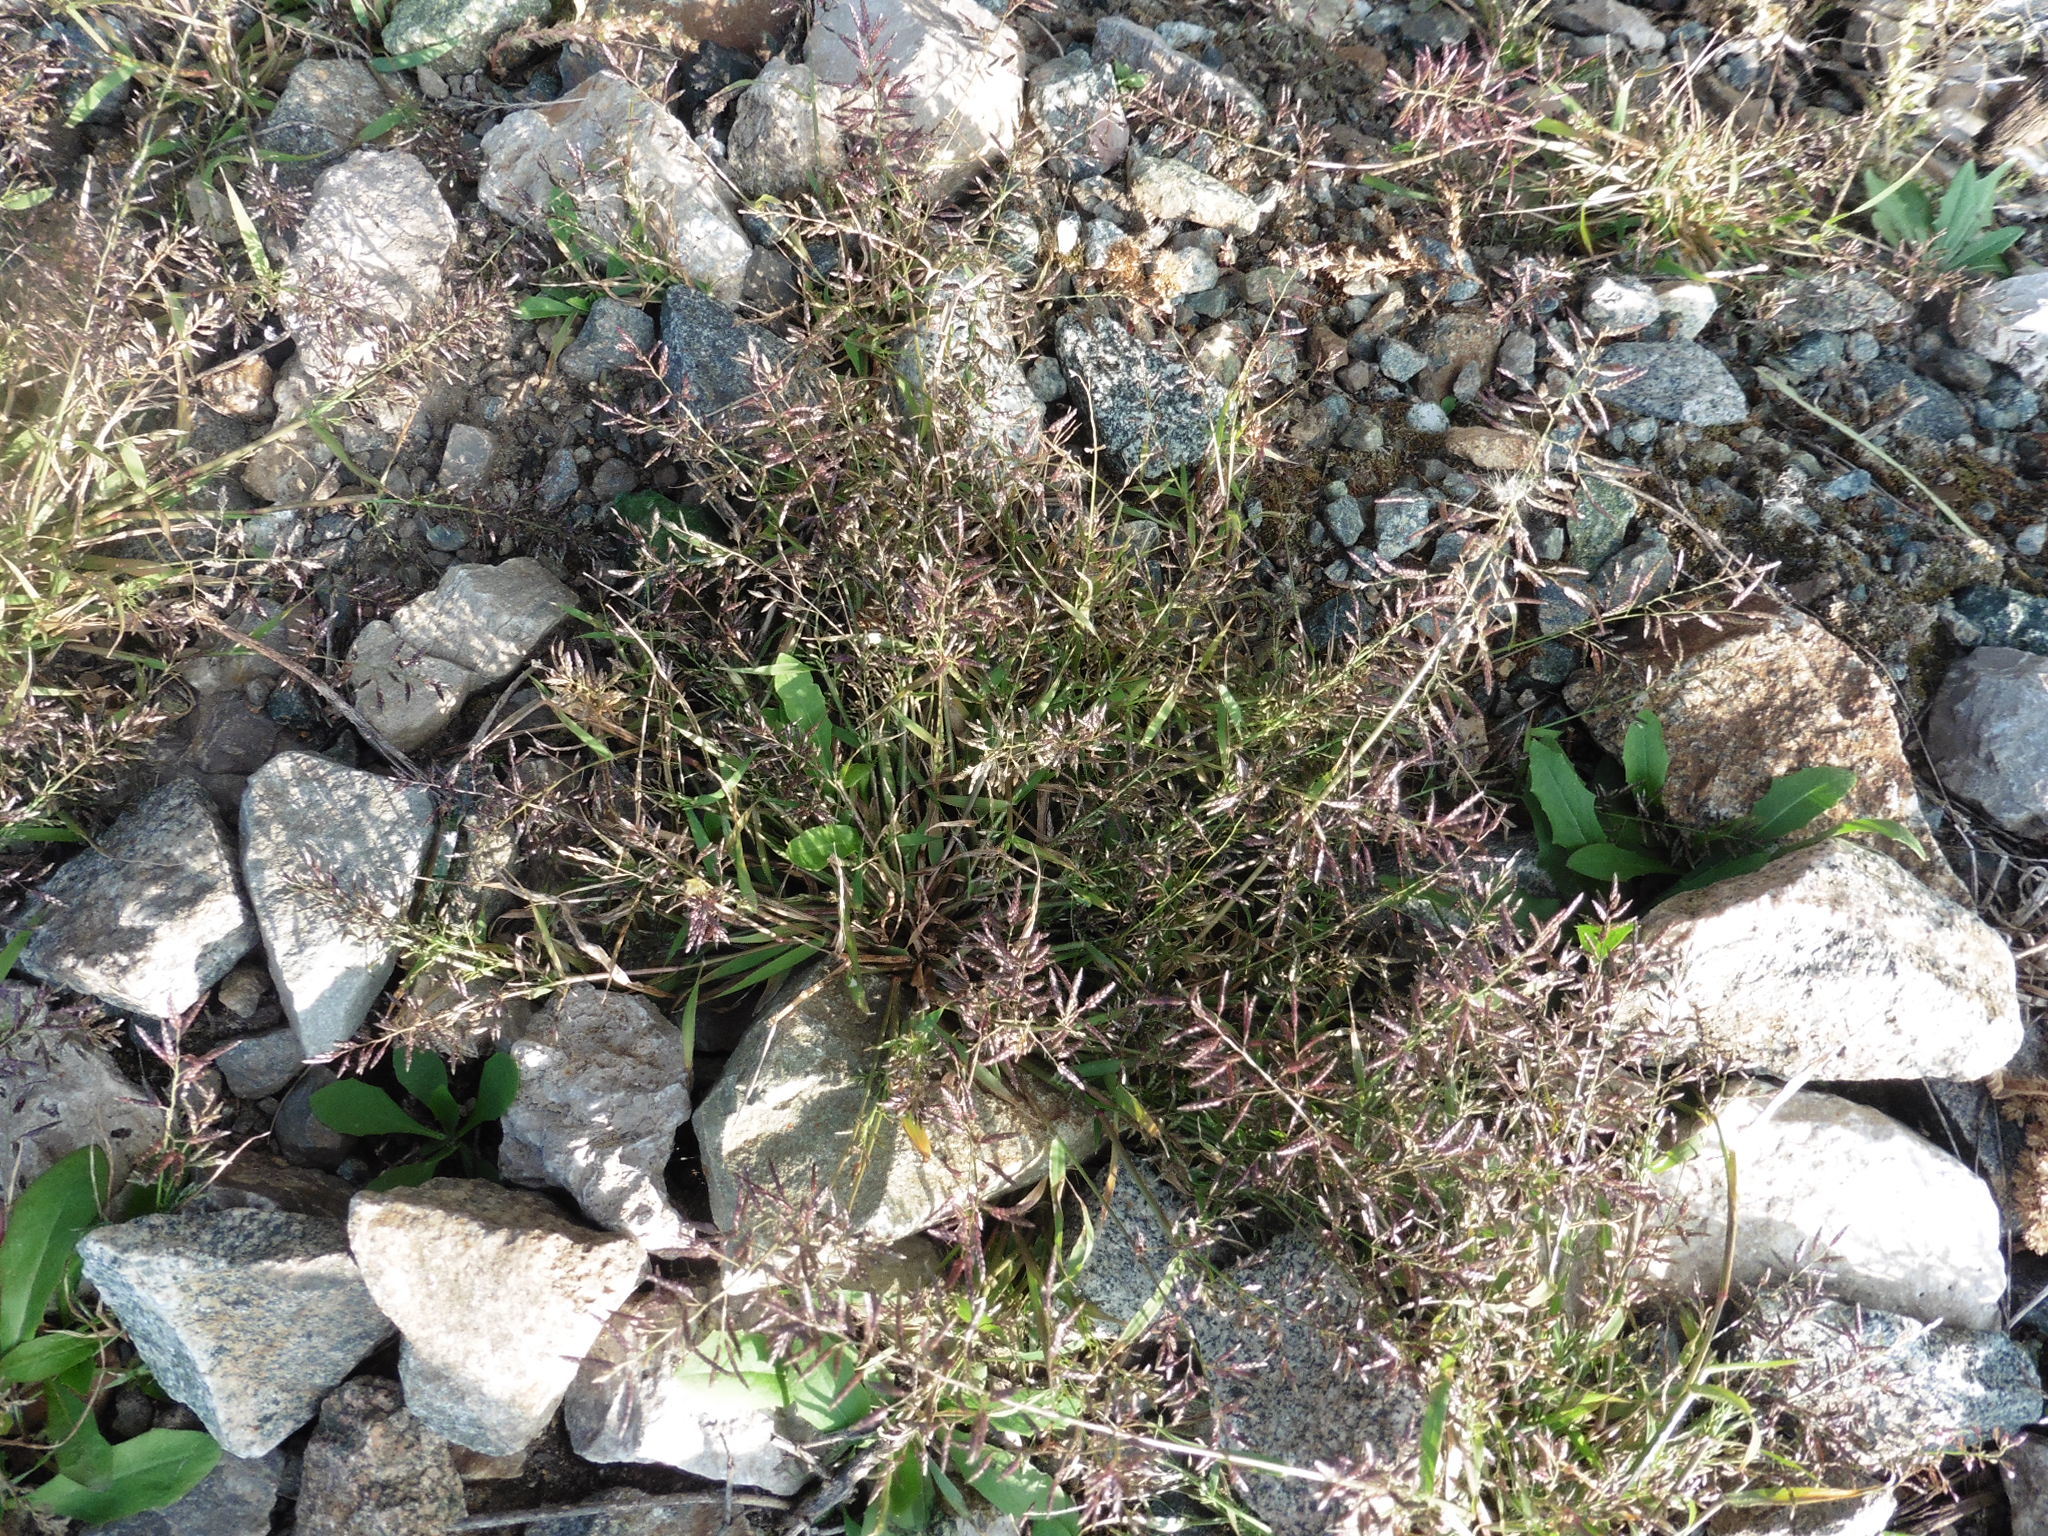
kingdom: Plantae
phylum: Tracheophyta
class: Liliopsida
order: Poales
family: Poaceae
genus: Eragrostis
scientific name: Eragrostis minor
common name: Small love-grass
